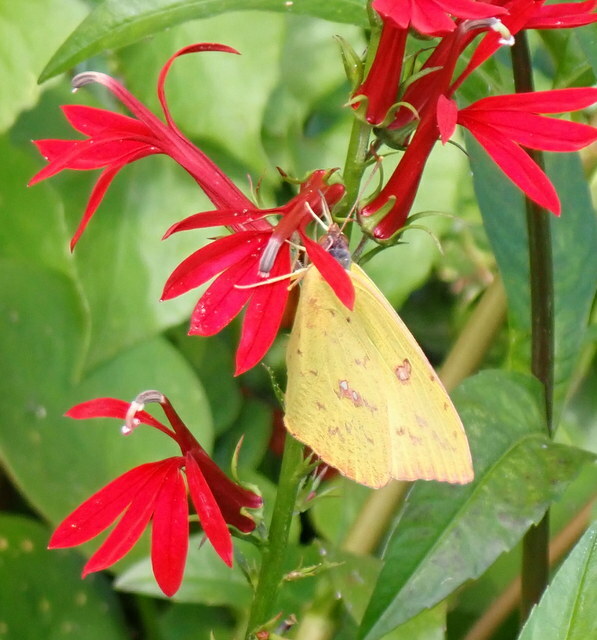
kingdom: Animalia
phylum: Arthropoda
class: Insecta
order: Lepidoptera
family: Pieridae
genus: Phoebis
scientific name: Phoebis sennae
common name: Cloudless sulphur
